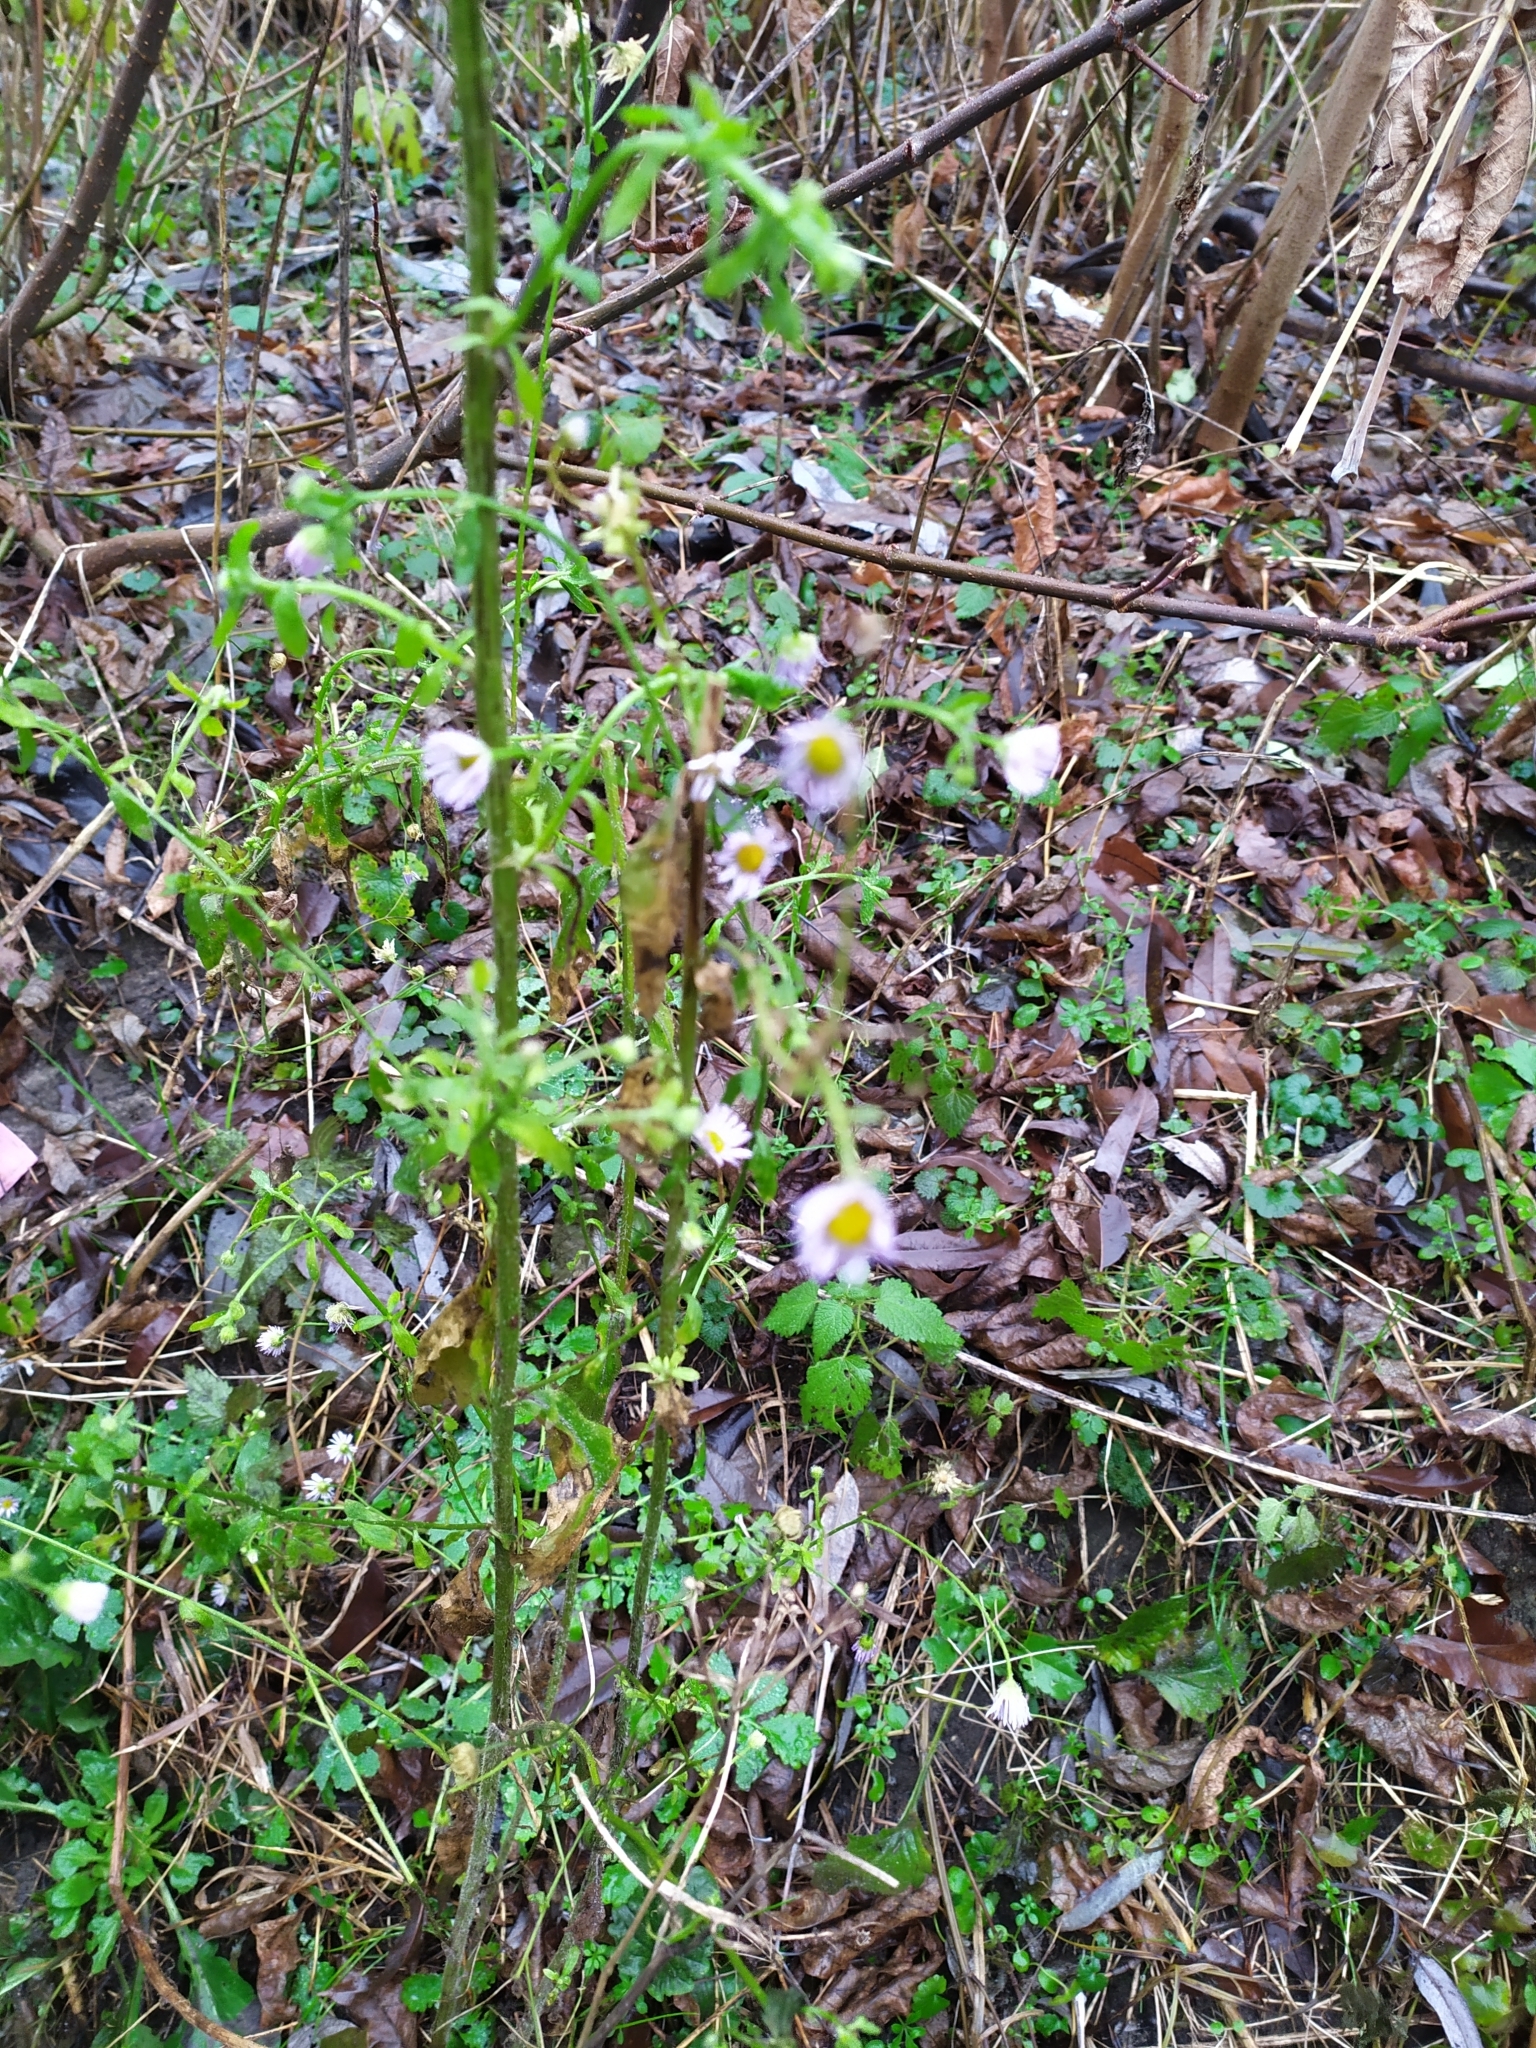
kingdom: Plantae
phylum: Tracheophyta
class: Magnoliopsida
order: Asterales
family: Asteraceae
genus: Erigeron
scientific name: Erigeron annuus
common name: Tall fleabane
